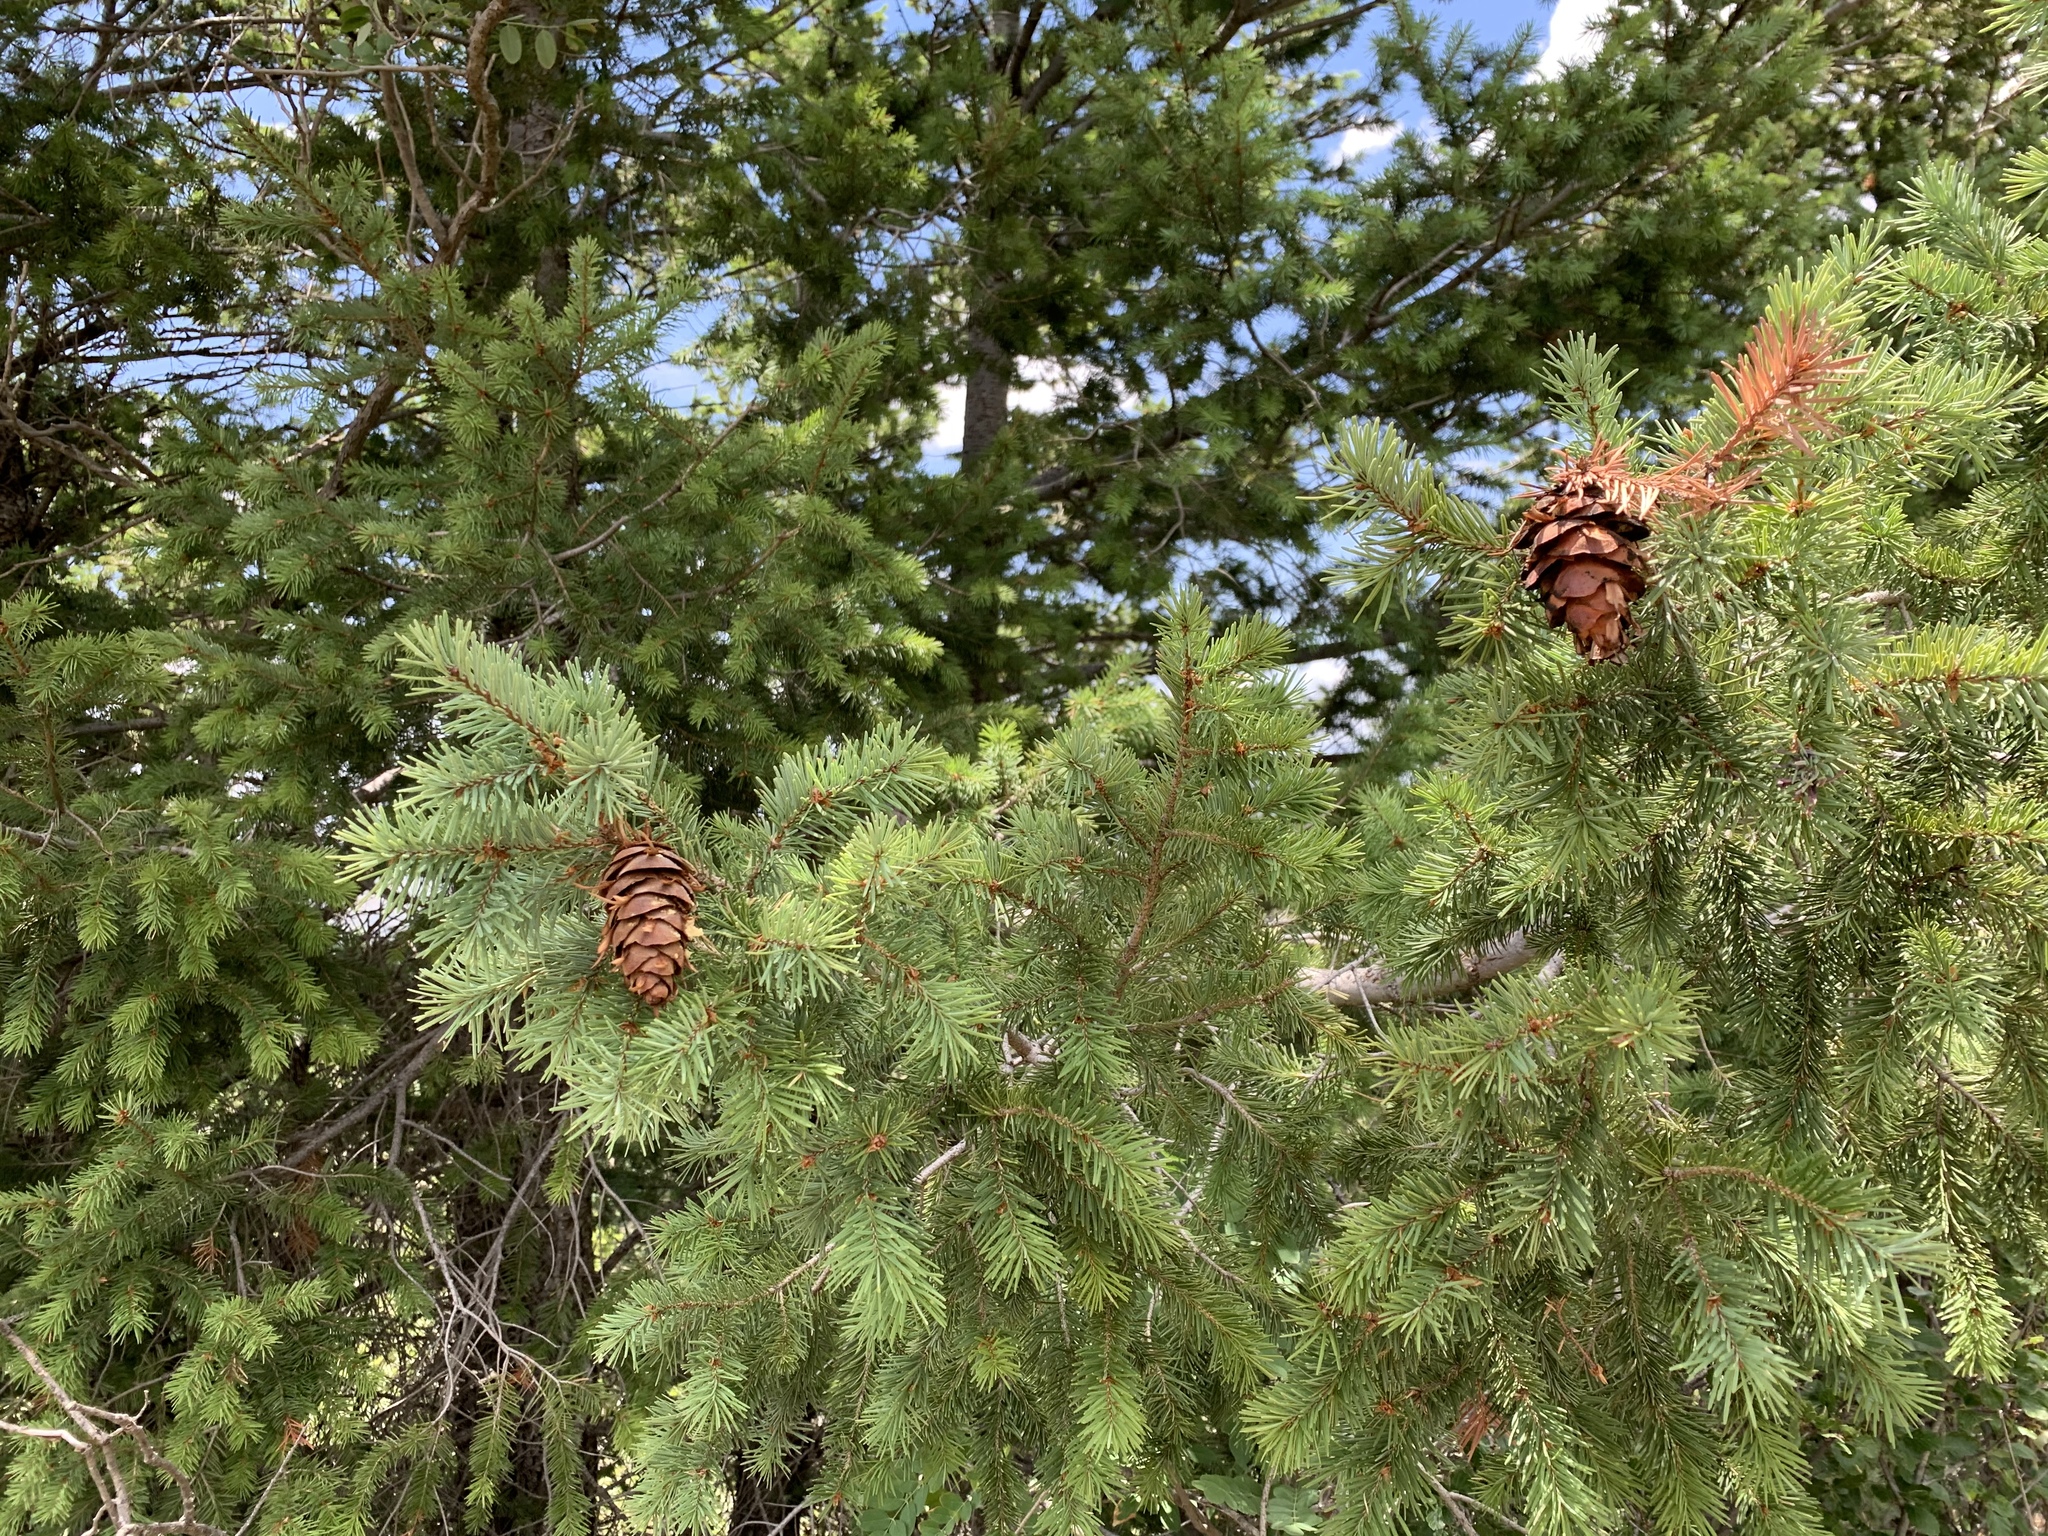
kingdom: Plantae
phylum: Tracheophyta
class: Pinopsida
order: Pinales
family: Pinaceae
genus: Pseudotsuga
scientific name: Pseudotsuga menziesii
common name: Douglas fir
